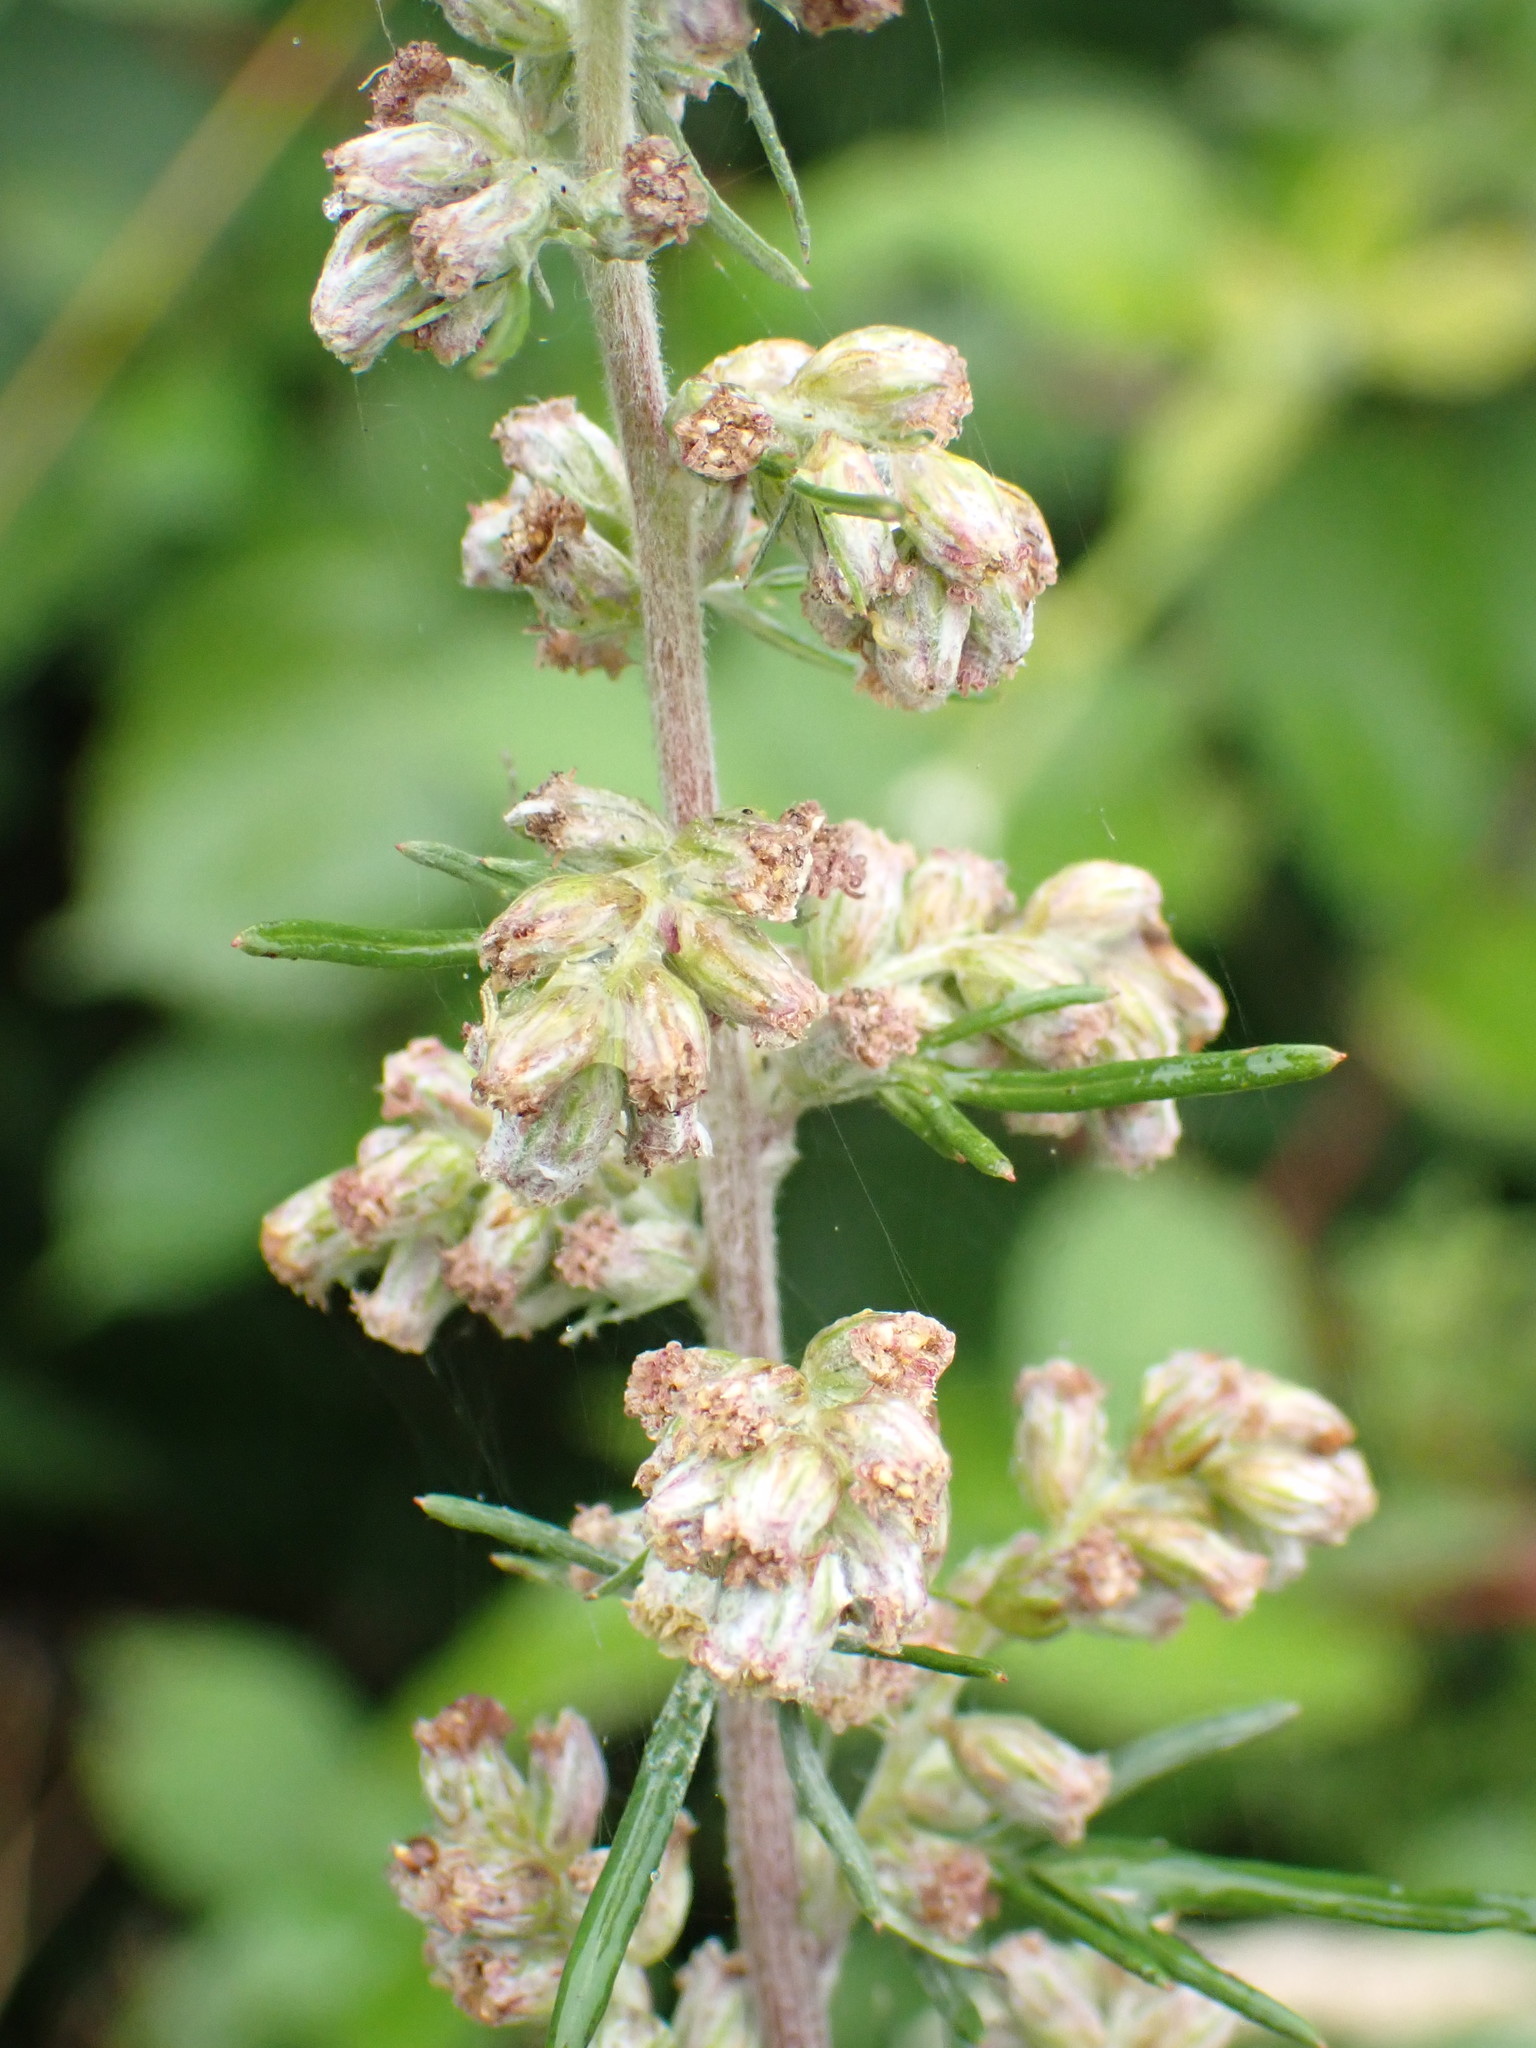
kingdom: Plantae
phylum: Tracheophyta
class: Magnoliopsida
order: Asterales
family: Asteraceae
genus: Artemisia
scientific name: Artemisia vulgaris
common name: Mugwort
